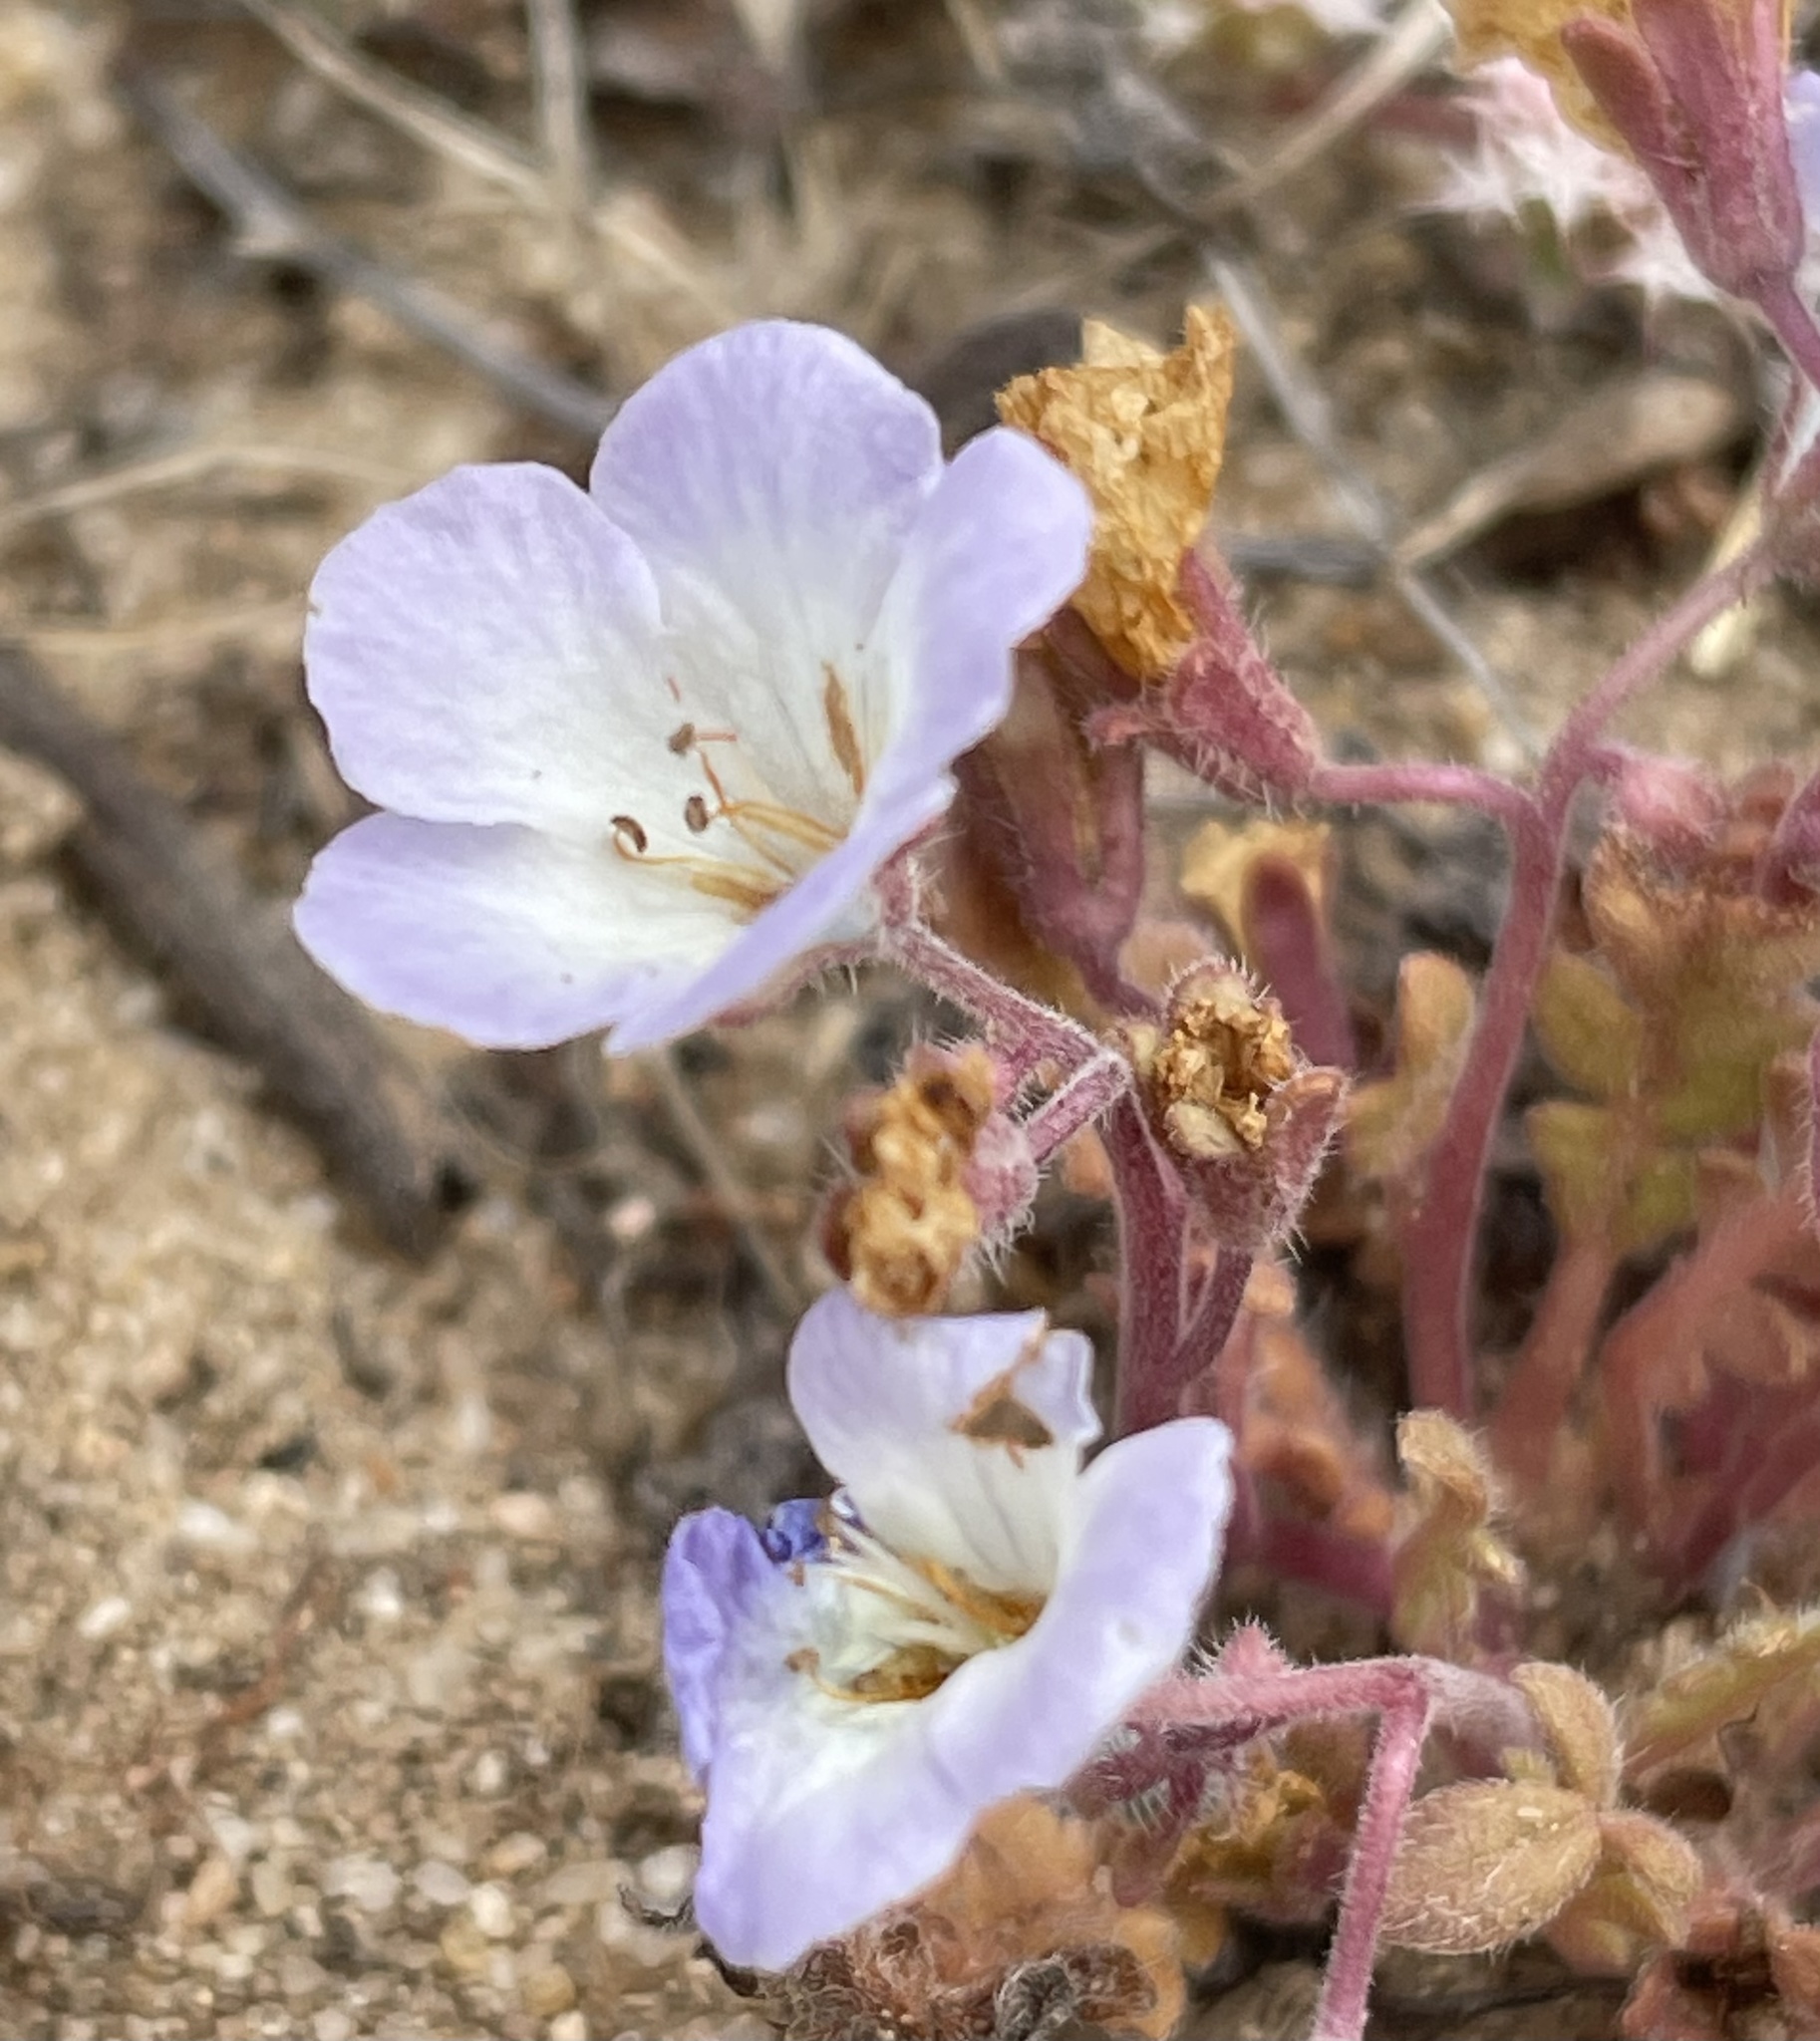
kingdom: Plantae
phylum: Tracheophyta
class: Magnoliopsida
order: Boraginales
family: Hydrophyllaceae
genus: Phacelia
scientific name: Phacelia douglasii
